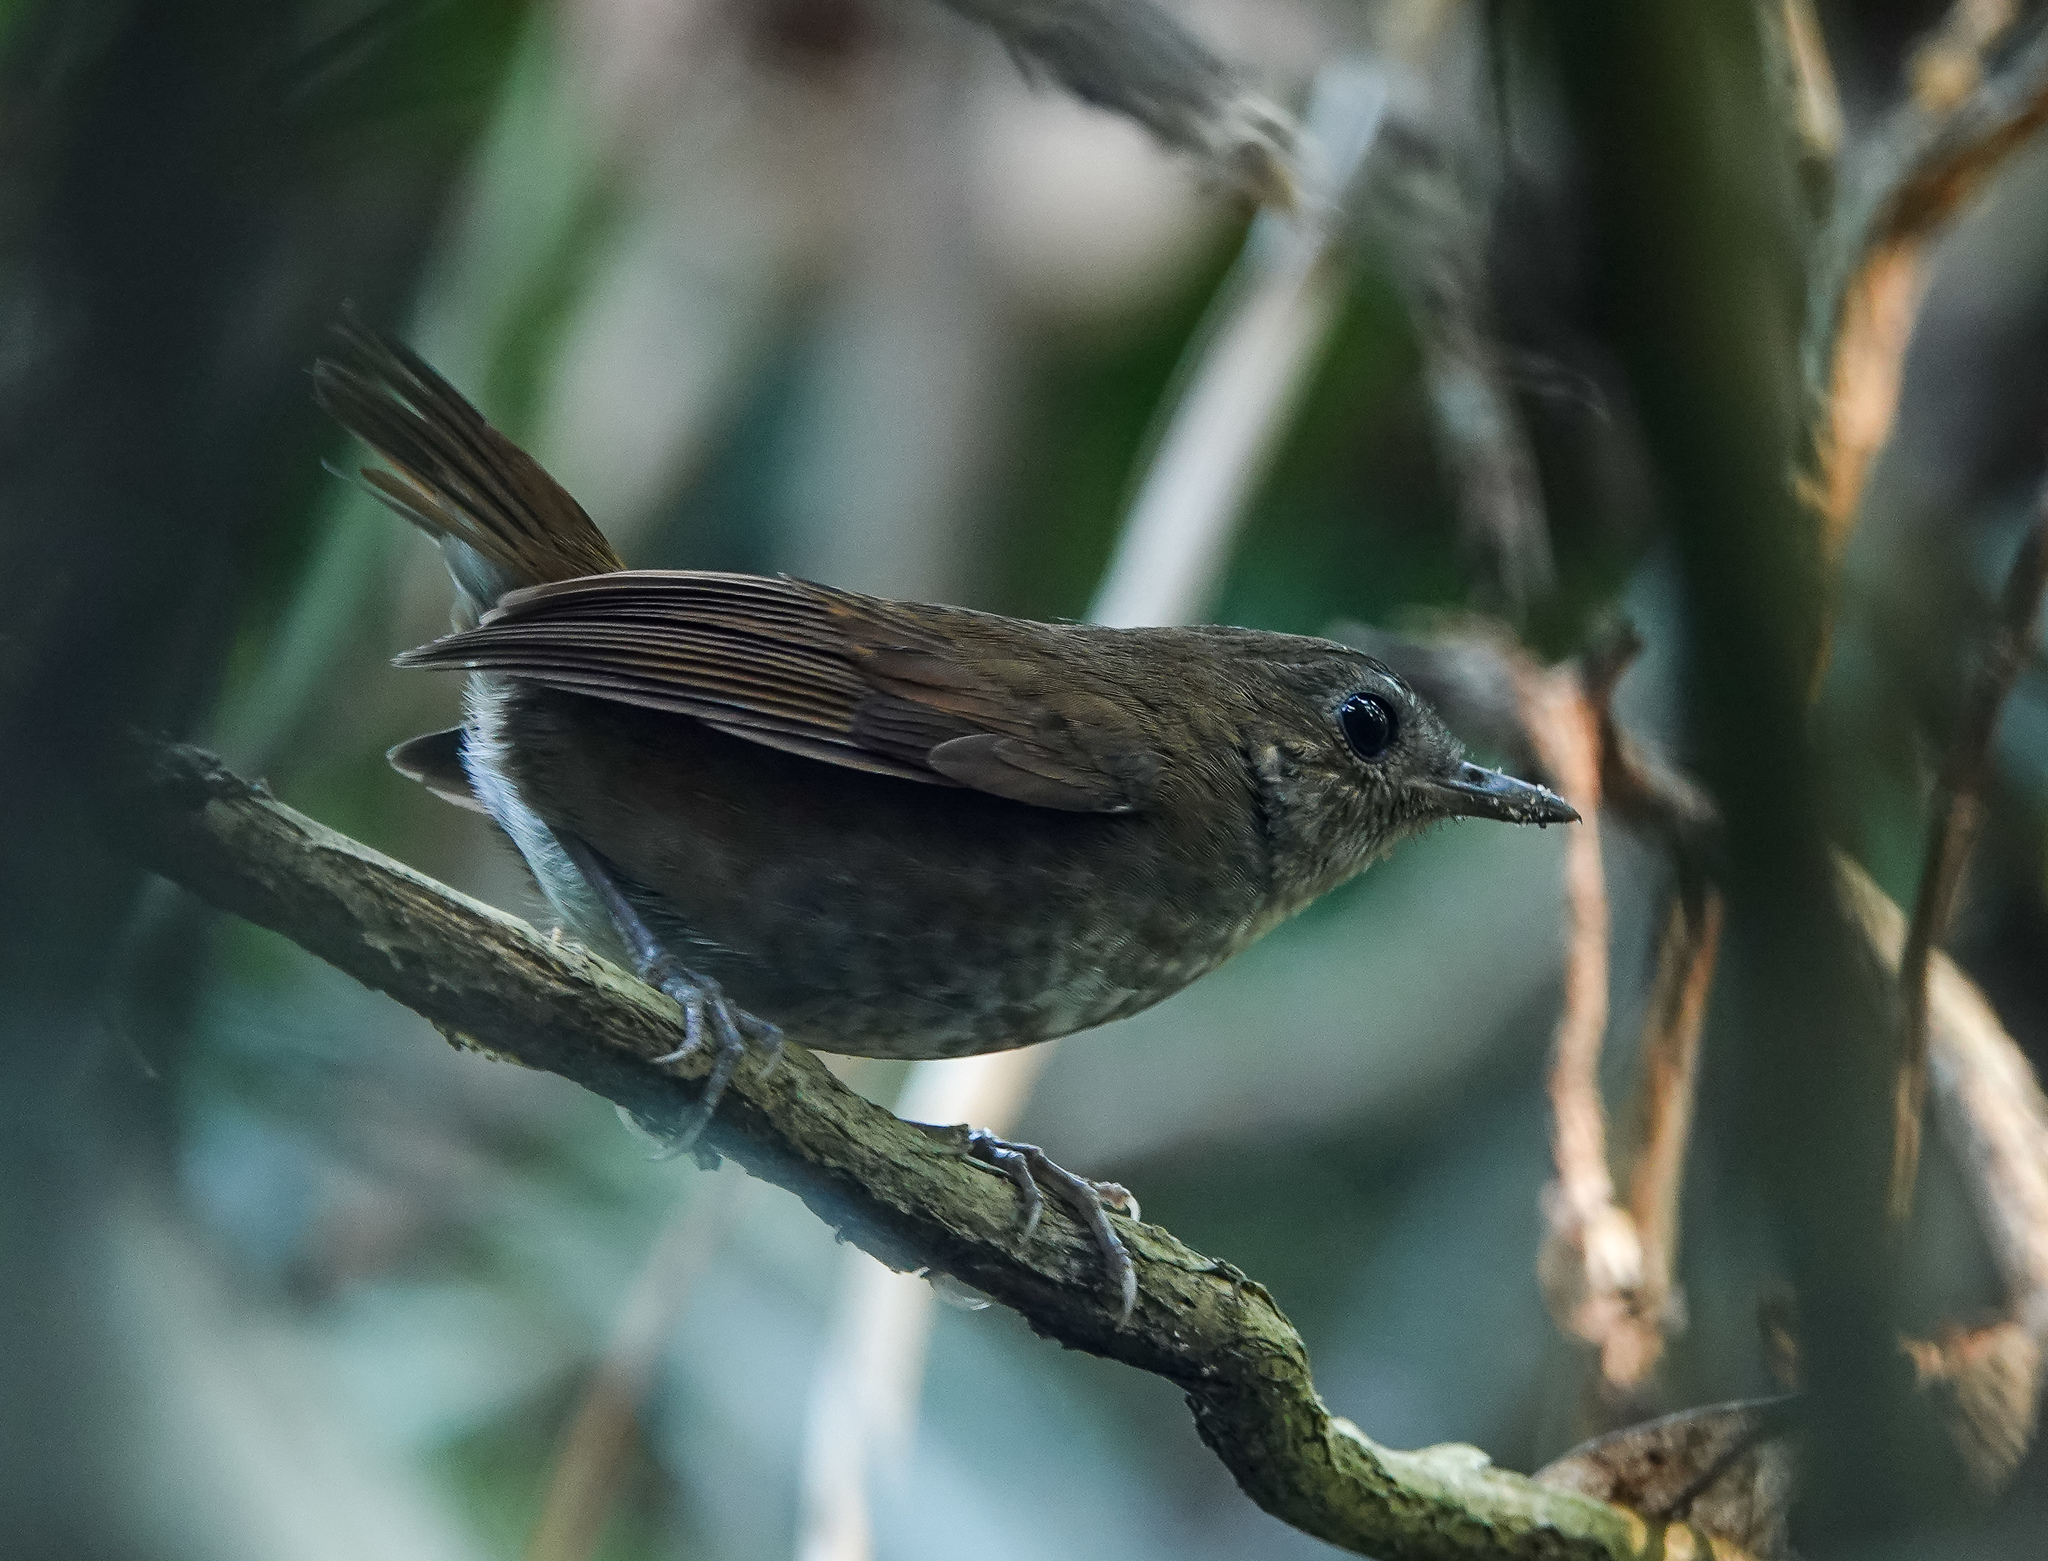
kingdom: Animalia
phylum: Chordata
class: Aves
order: Passeriformes
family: Muscicapidae
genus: Brachypteryx
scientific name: Brachypteryx leucophris
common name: Lesser shortwing
